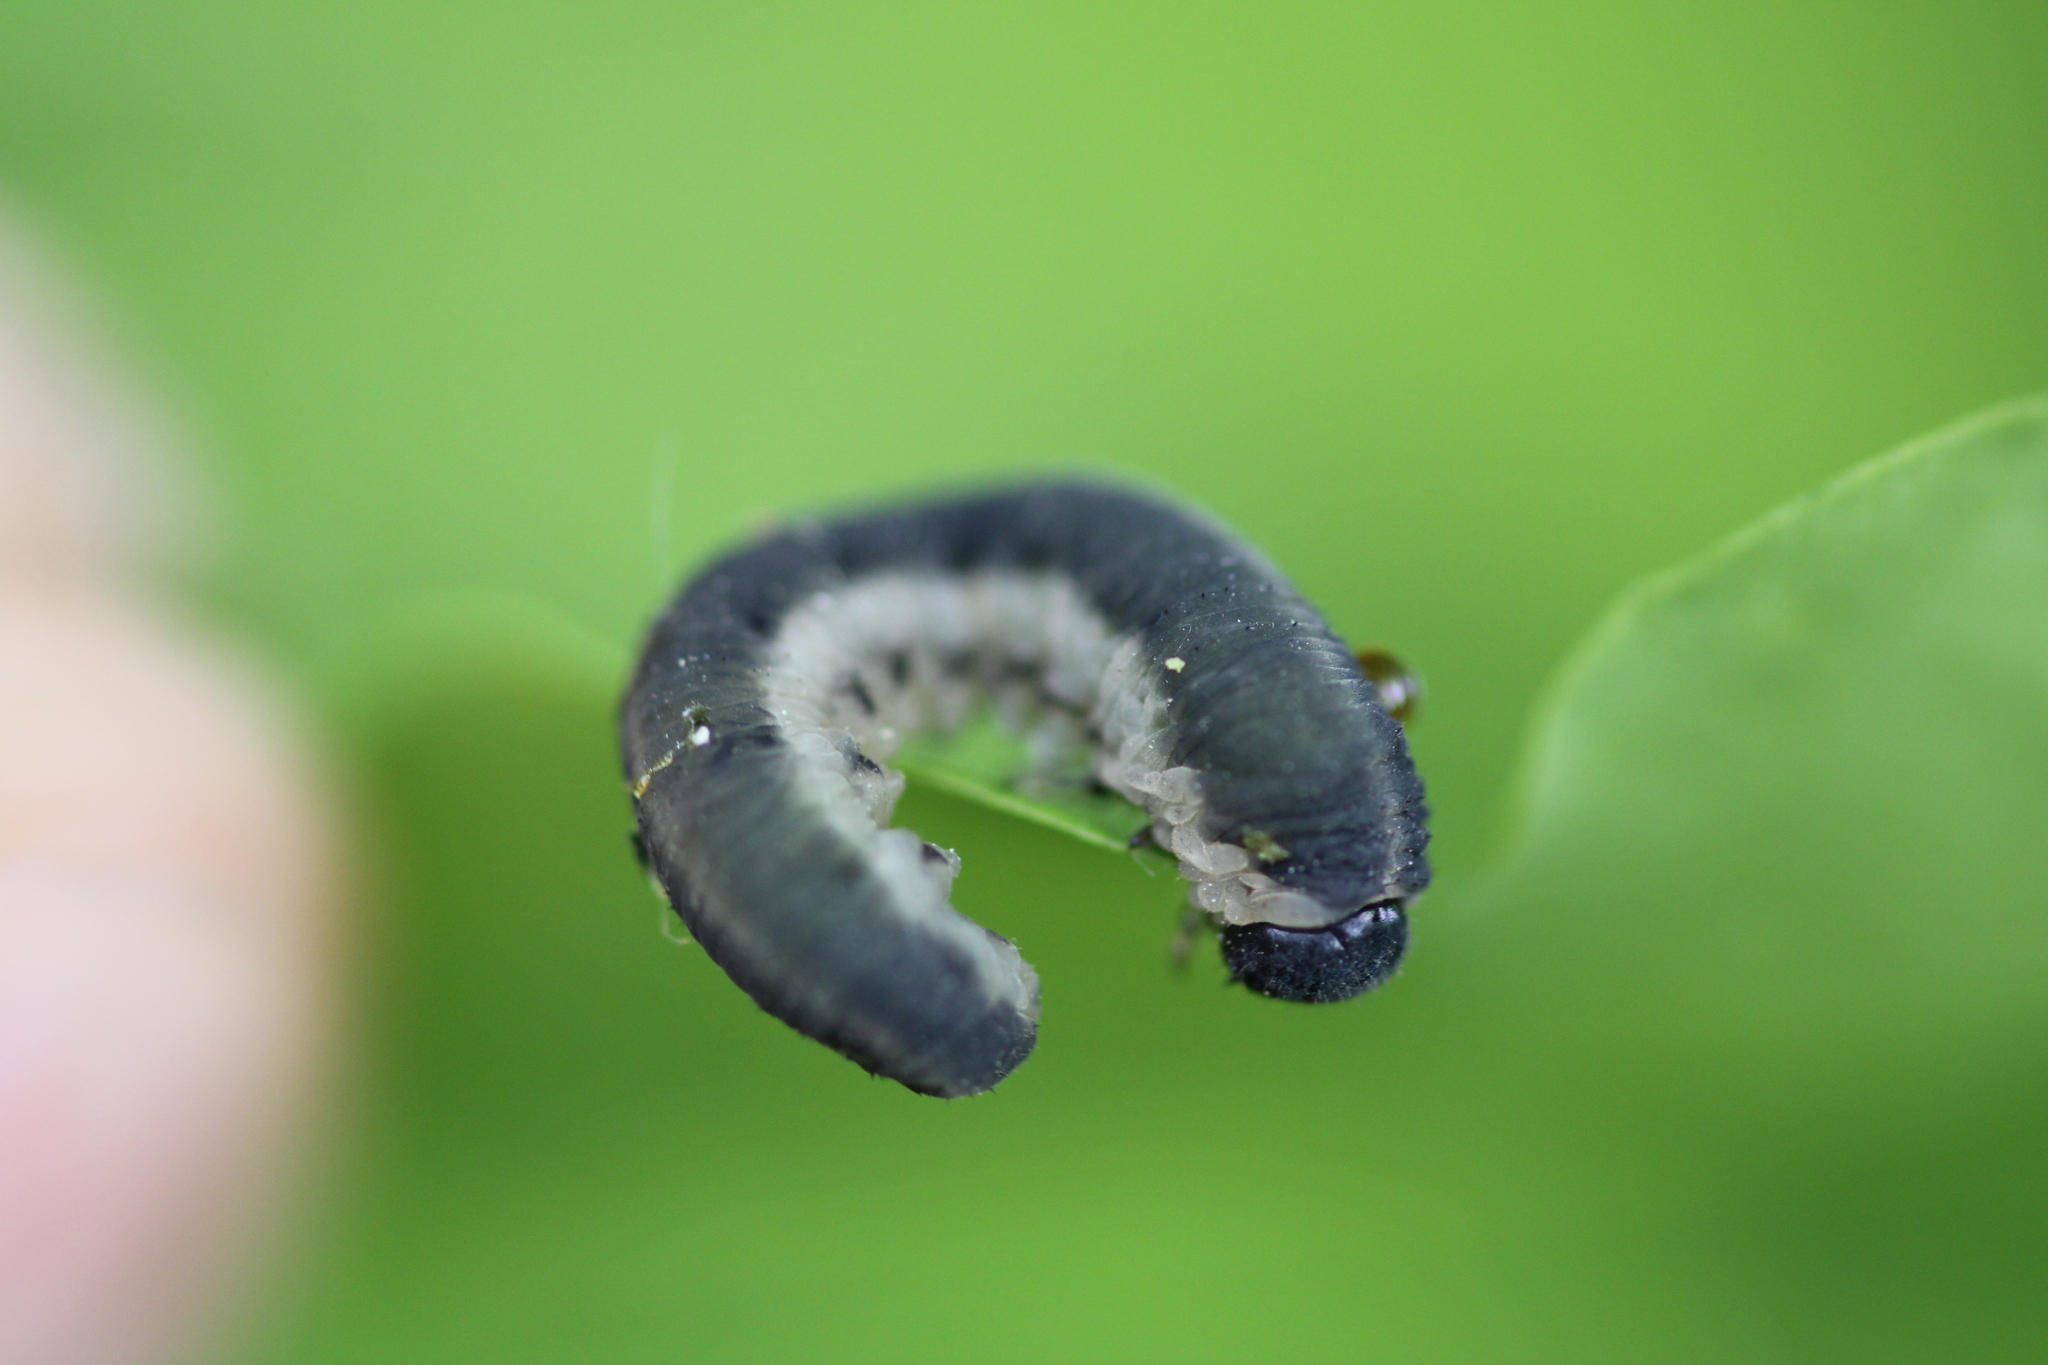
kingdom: Animalia
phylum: Arthropoda
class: Insecta
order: Hymenoptera
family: Tenthredinidae
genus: Apethymus
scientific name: Apethymus serotinus
